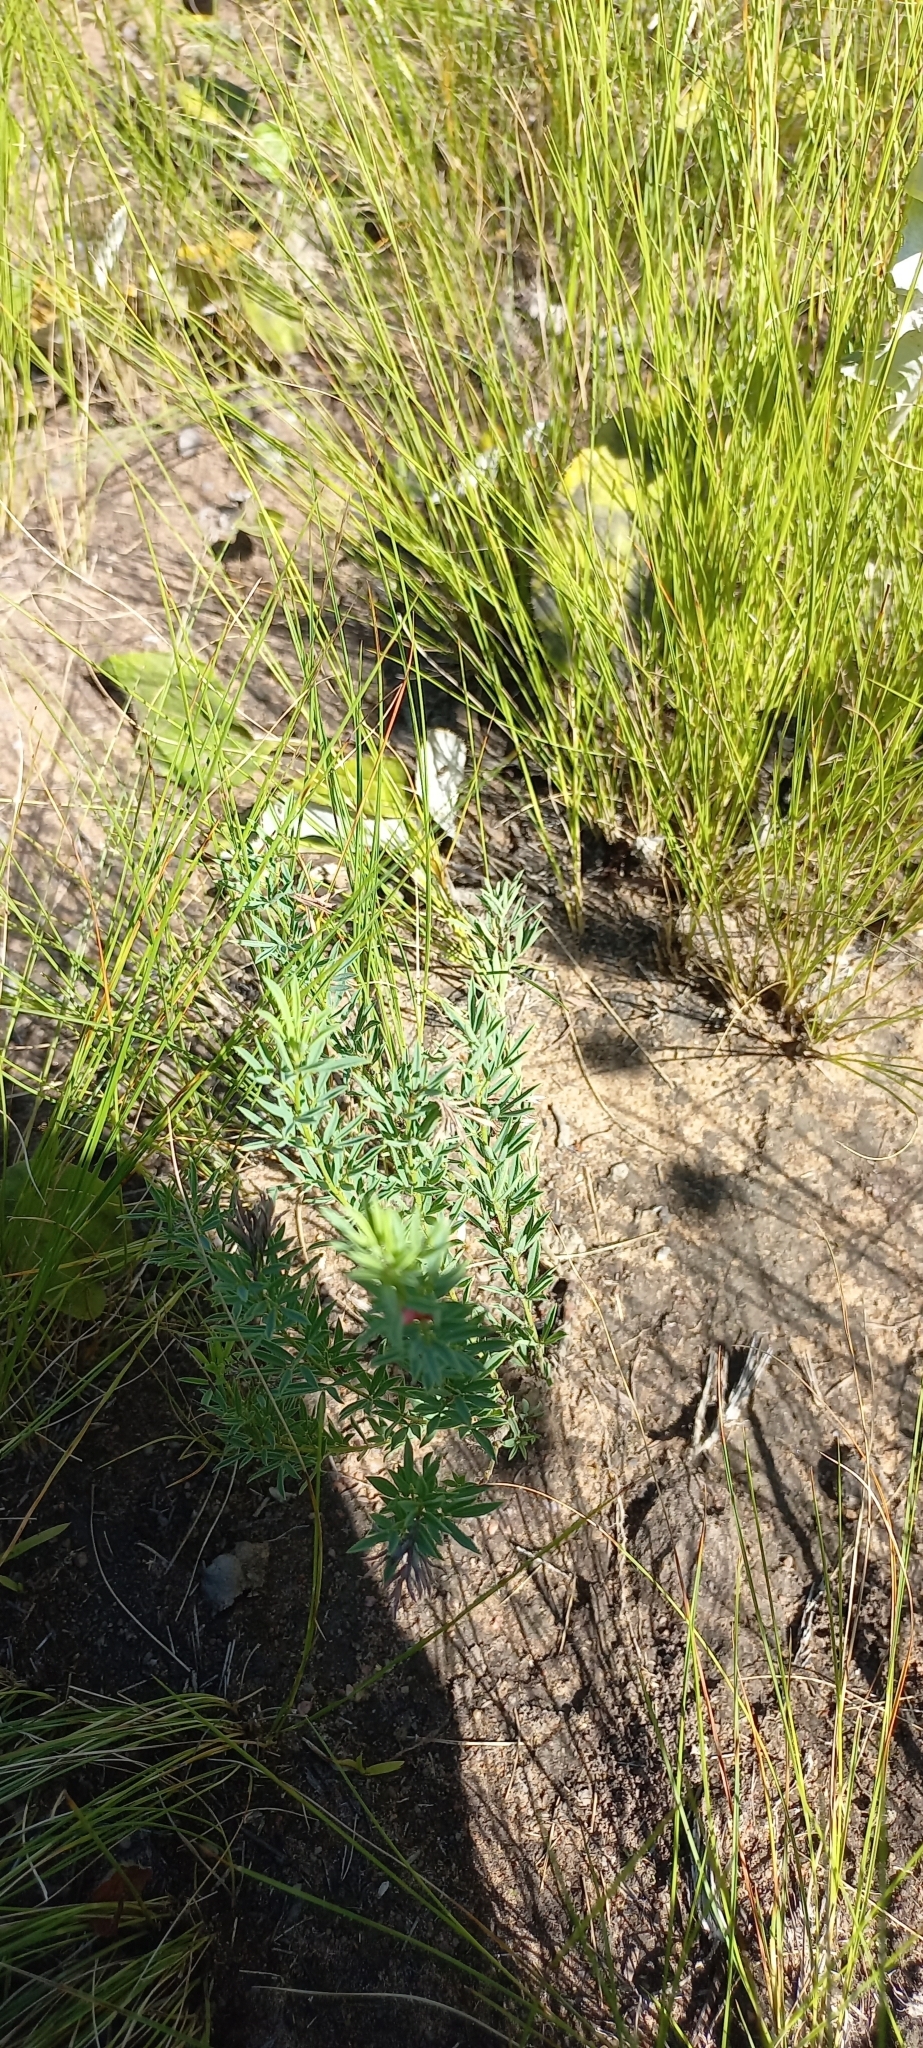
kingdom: Plantae
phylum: Tracheophyta
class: Magnoliopsida
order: Fabales
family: Fabaceae
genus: Indigofera
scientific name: Indigofera hilaris
